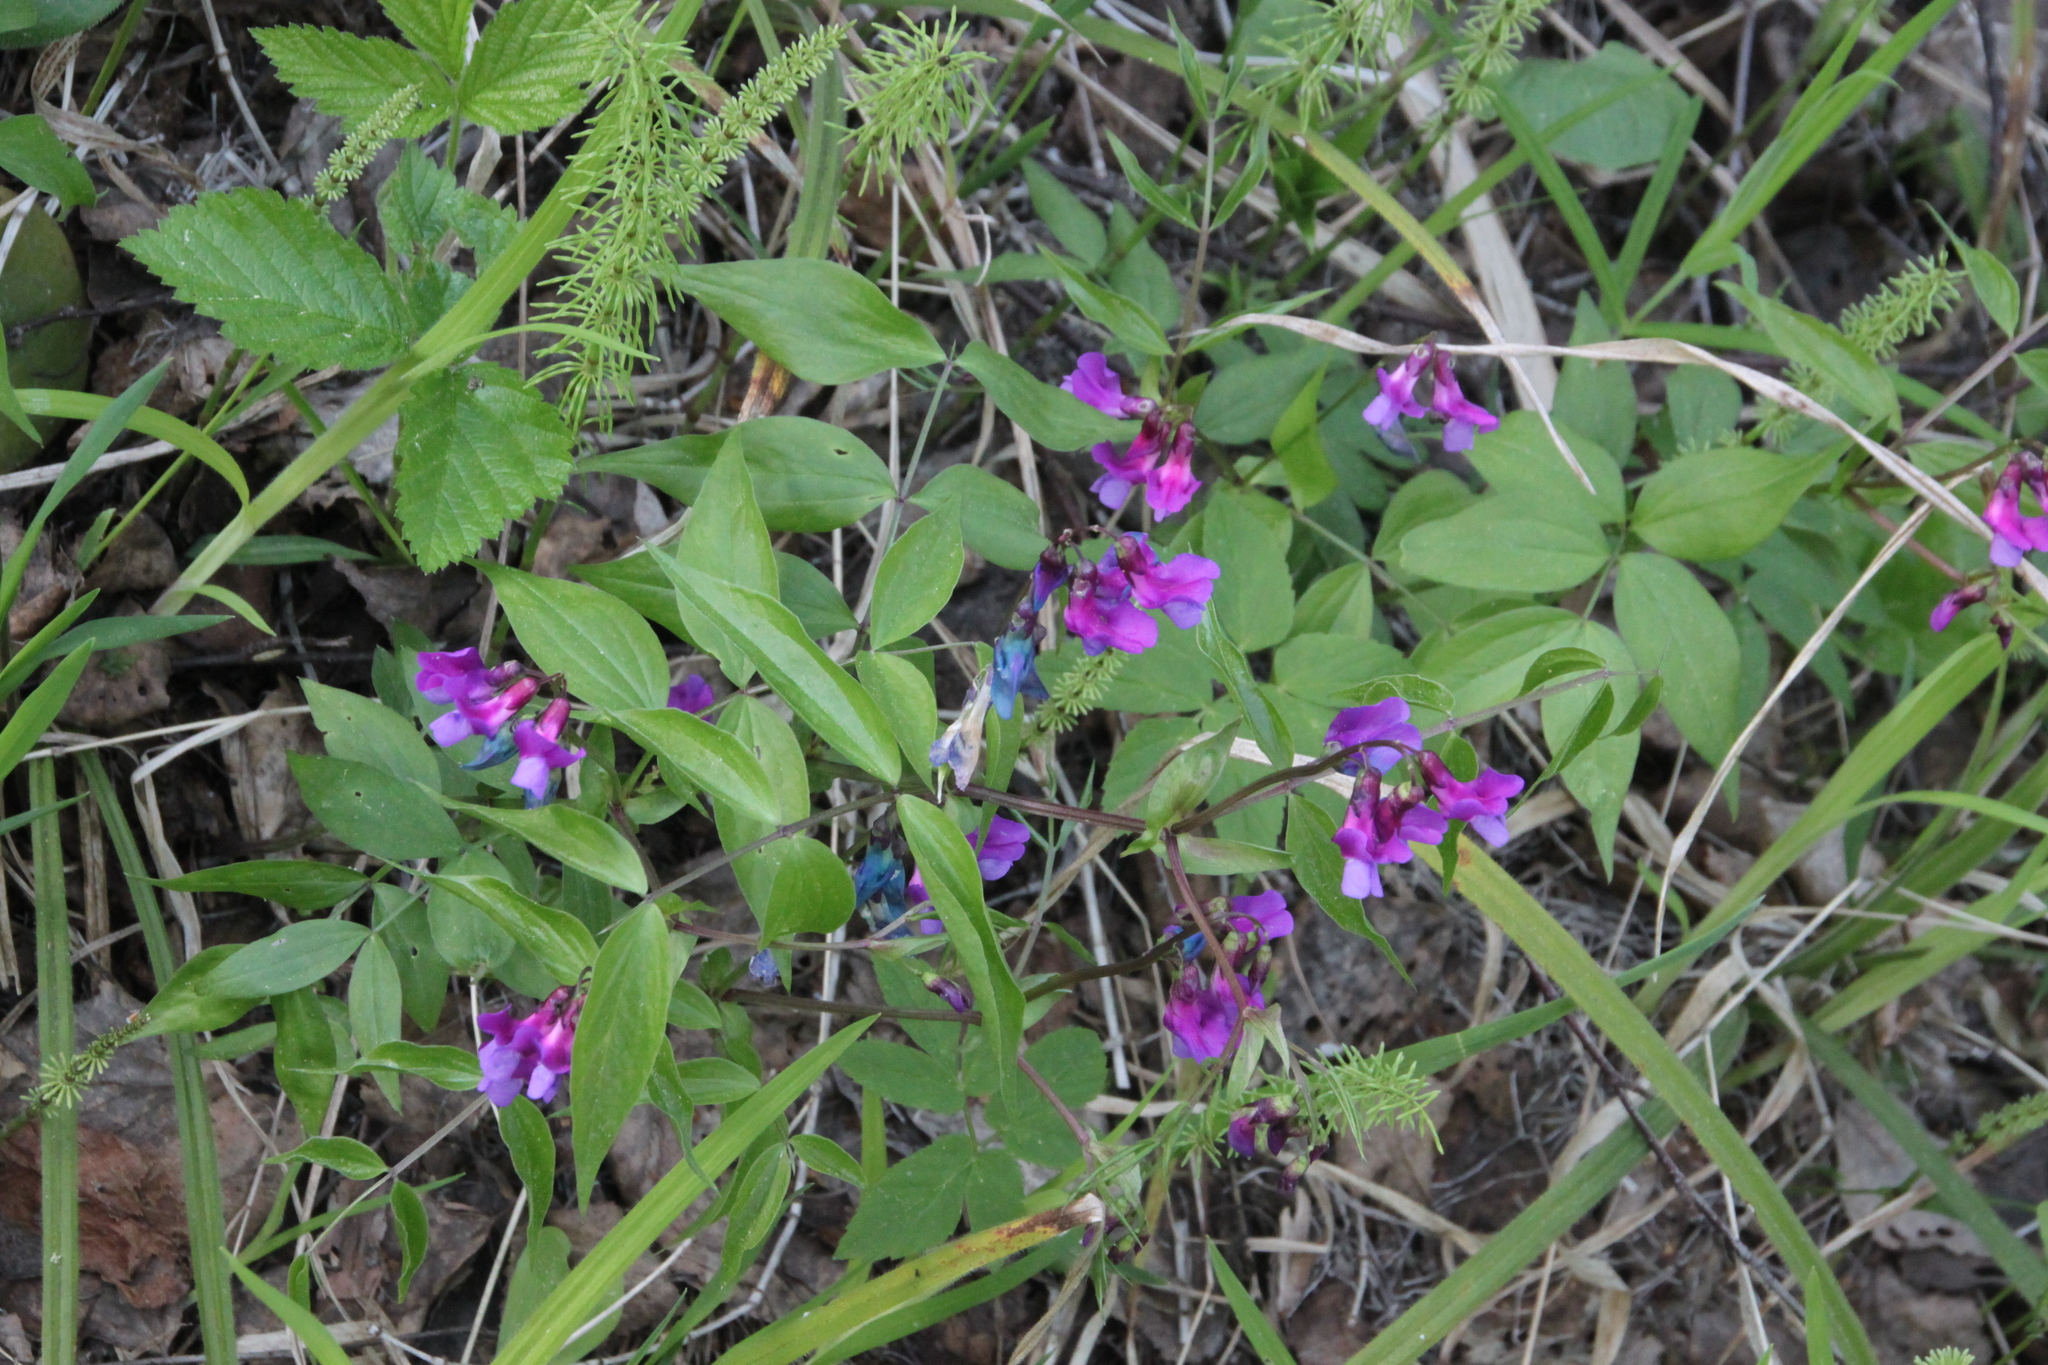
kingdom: Plantae
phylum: Tracheophyta
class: Magnoliopsida
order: Fabales
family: Fabaceae
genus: Lathyrus
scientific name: Lathyrus vernus
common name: Spring pea
